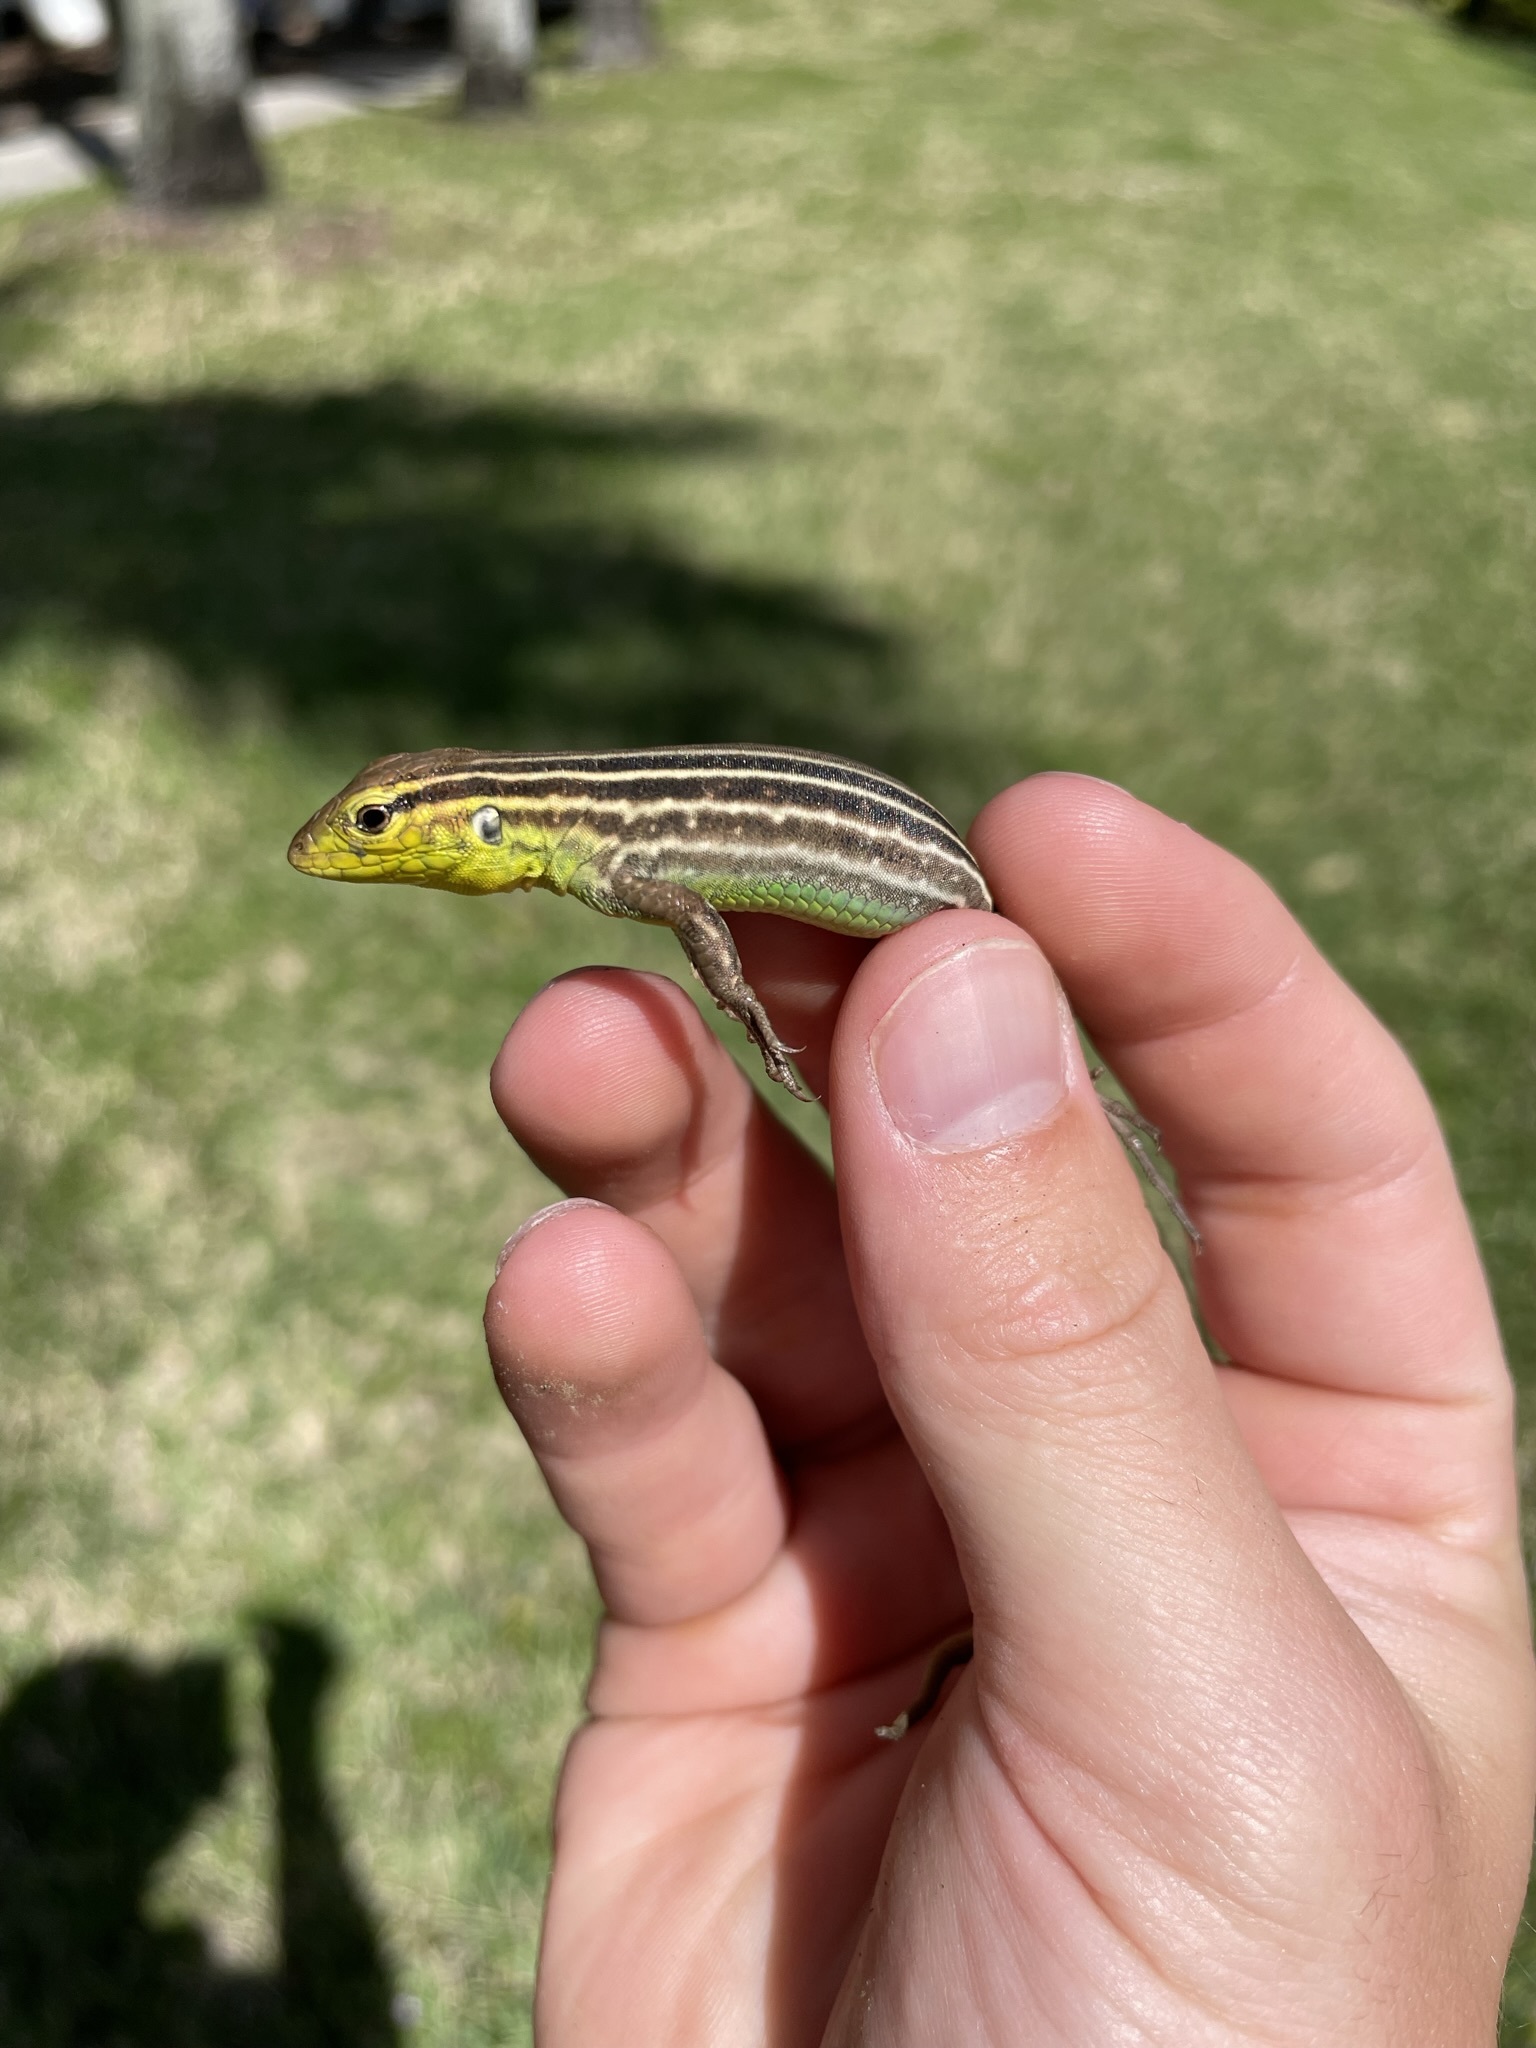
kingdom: Animalia
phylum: Chordata
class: Squamata
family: Teiidae
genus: Cnemidophorus
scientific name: Cnemidophorus lemniscatus
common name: Rainbow whiptail
